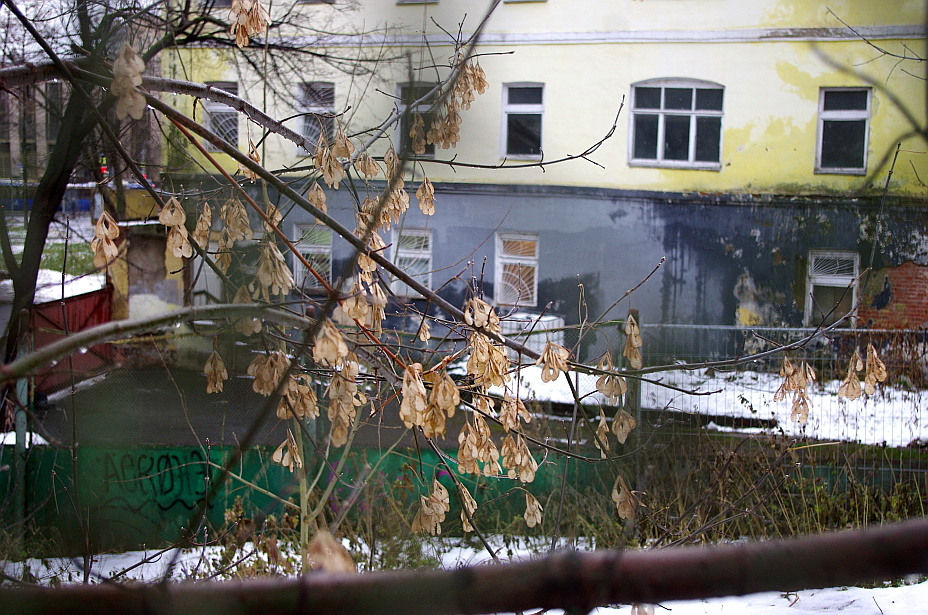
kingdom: Plantae
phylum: Tracheophyta
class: Magnoliopsida
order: Sapindales
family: Sapindaceae
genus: Acer
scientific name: Acer negundo
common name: Ashleaf maple
